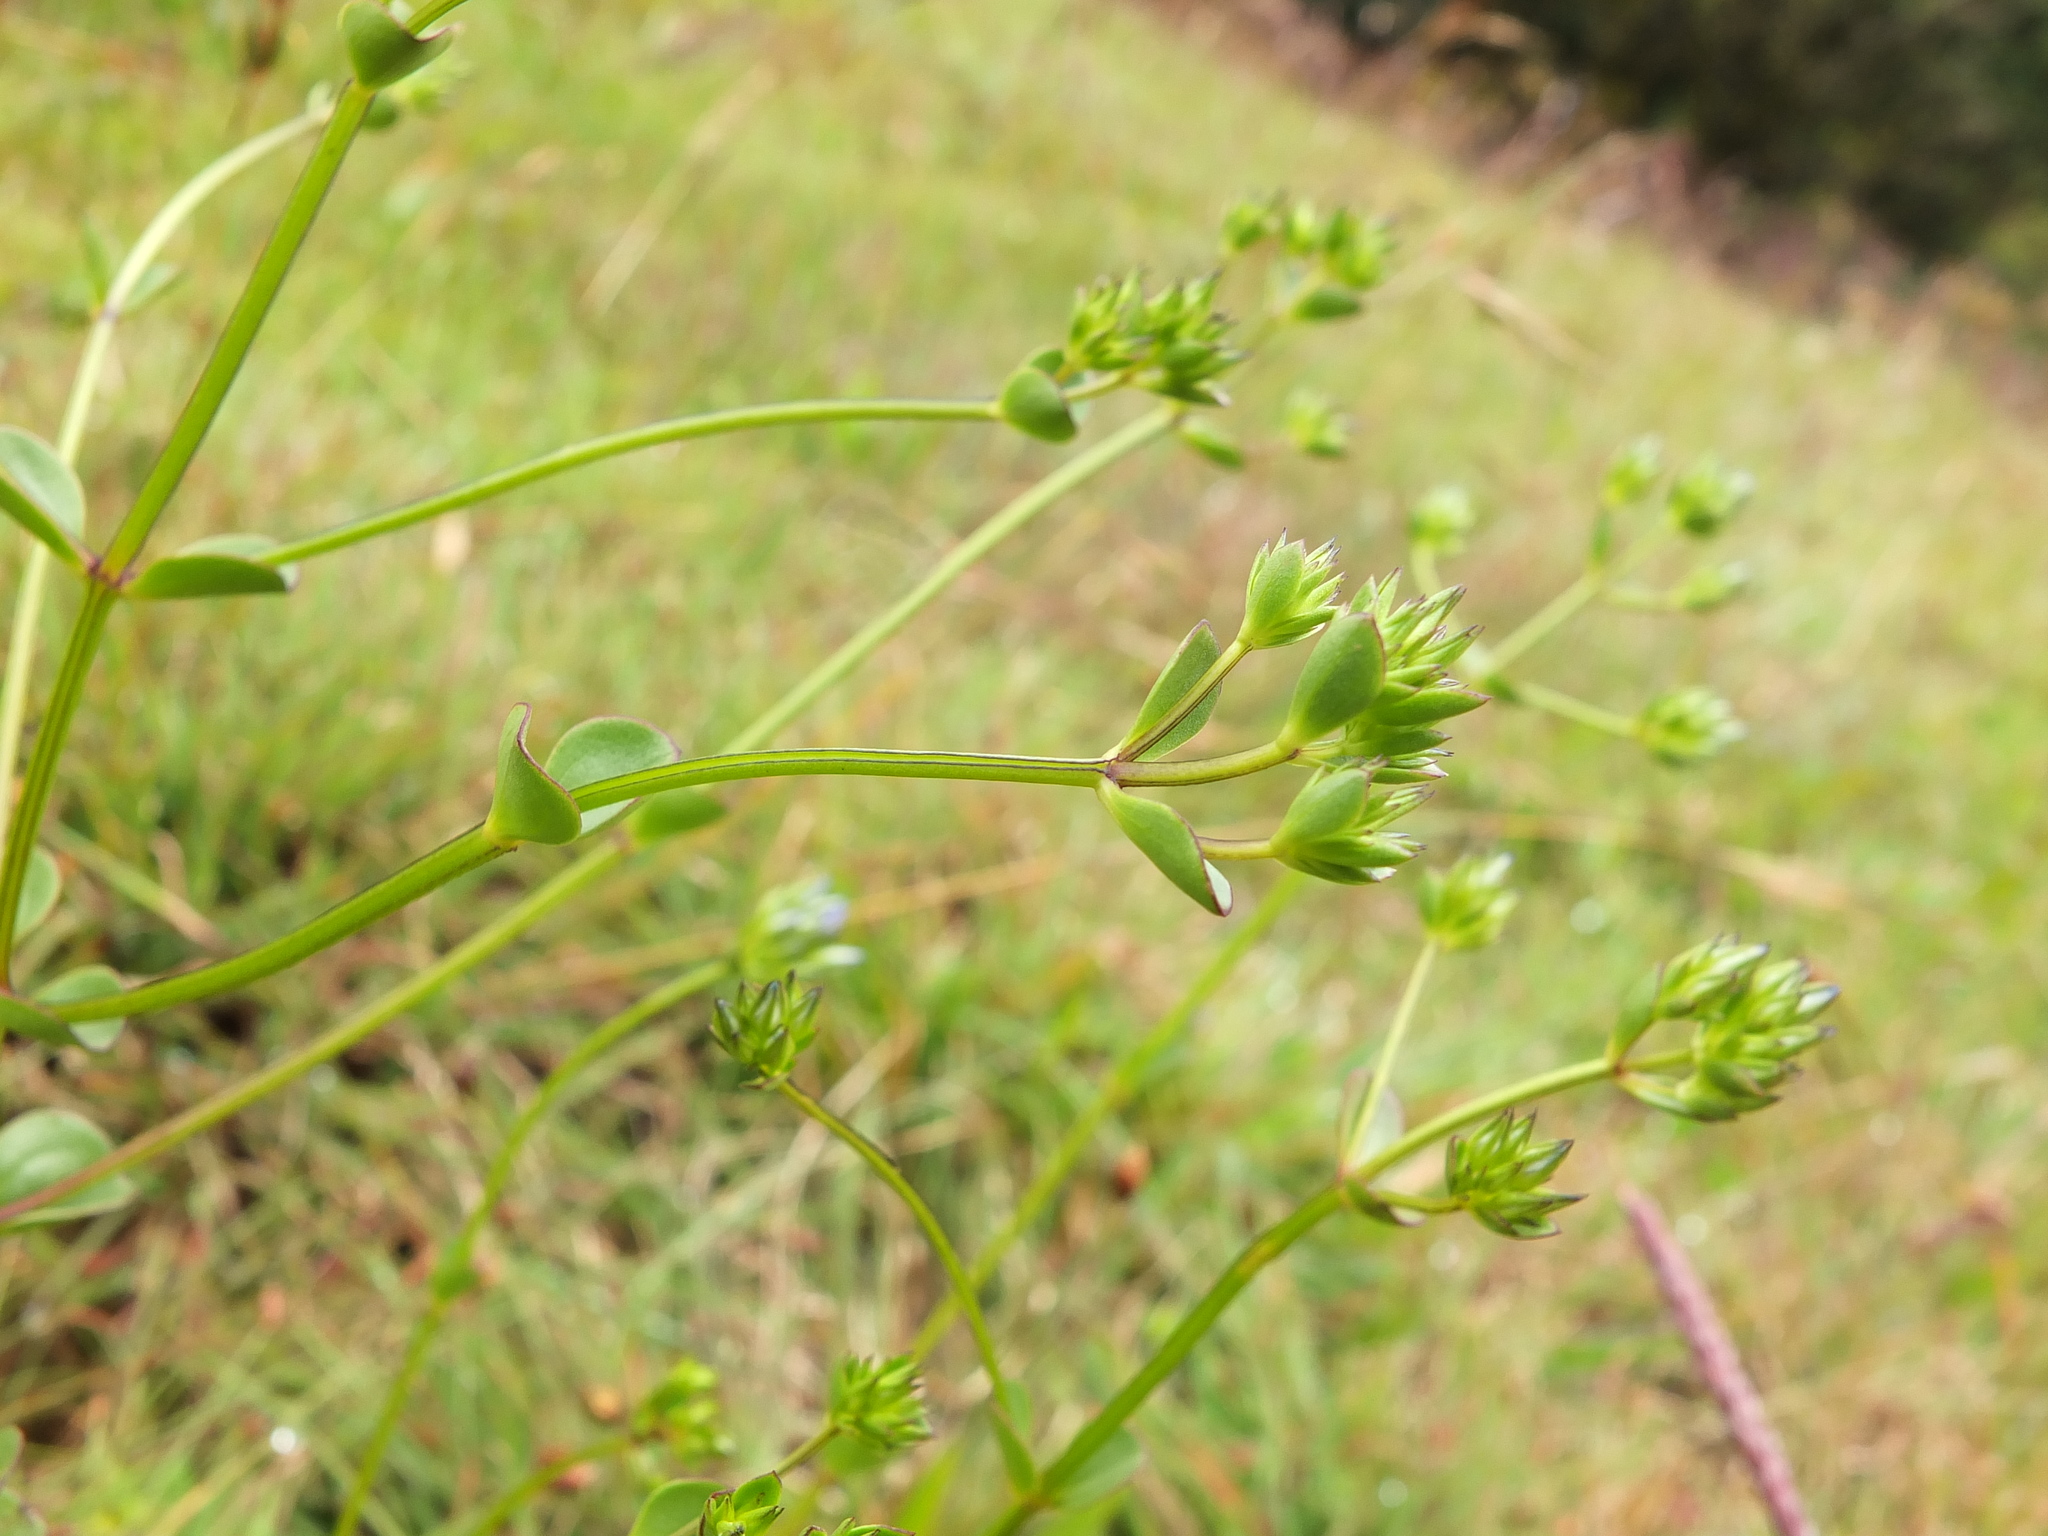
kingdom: Plantae
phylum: Tracheophyta
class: Magnoliopsida
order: Gentianales
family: Gentianaceae
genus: Swertia
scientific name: Swertia corymbosa
